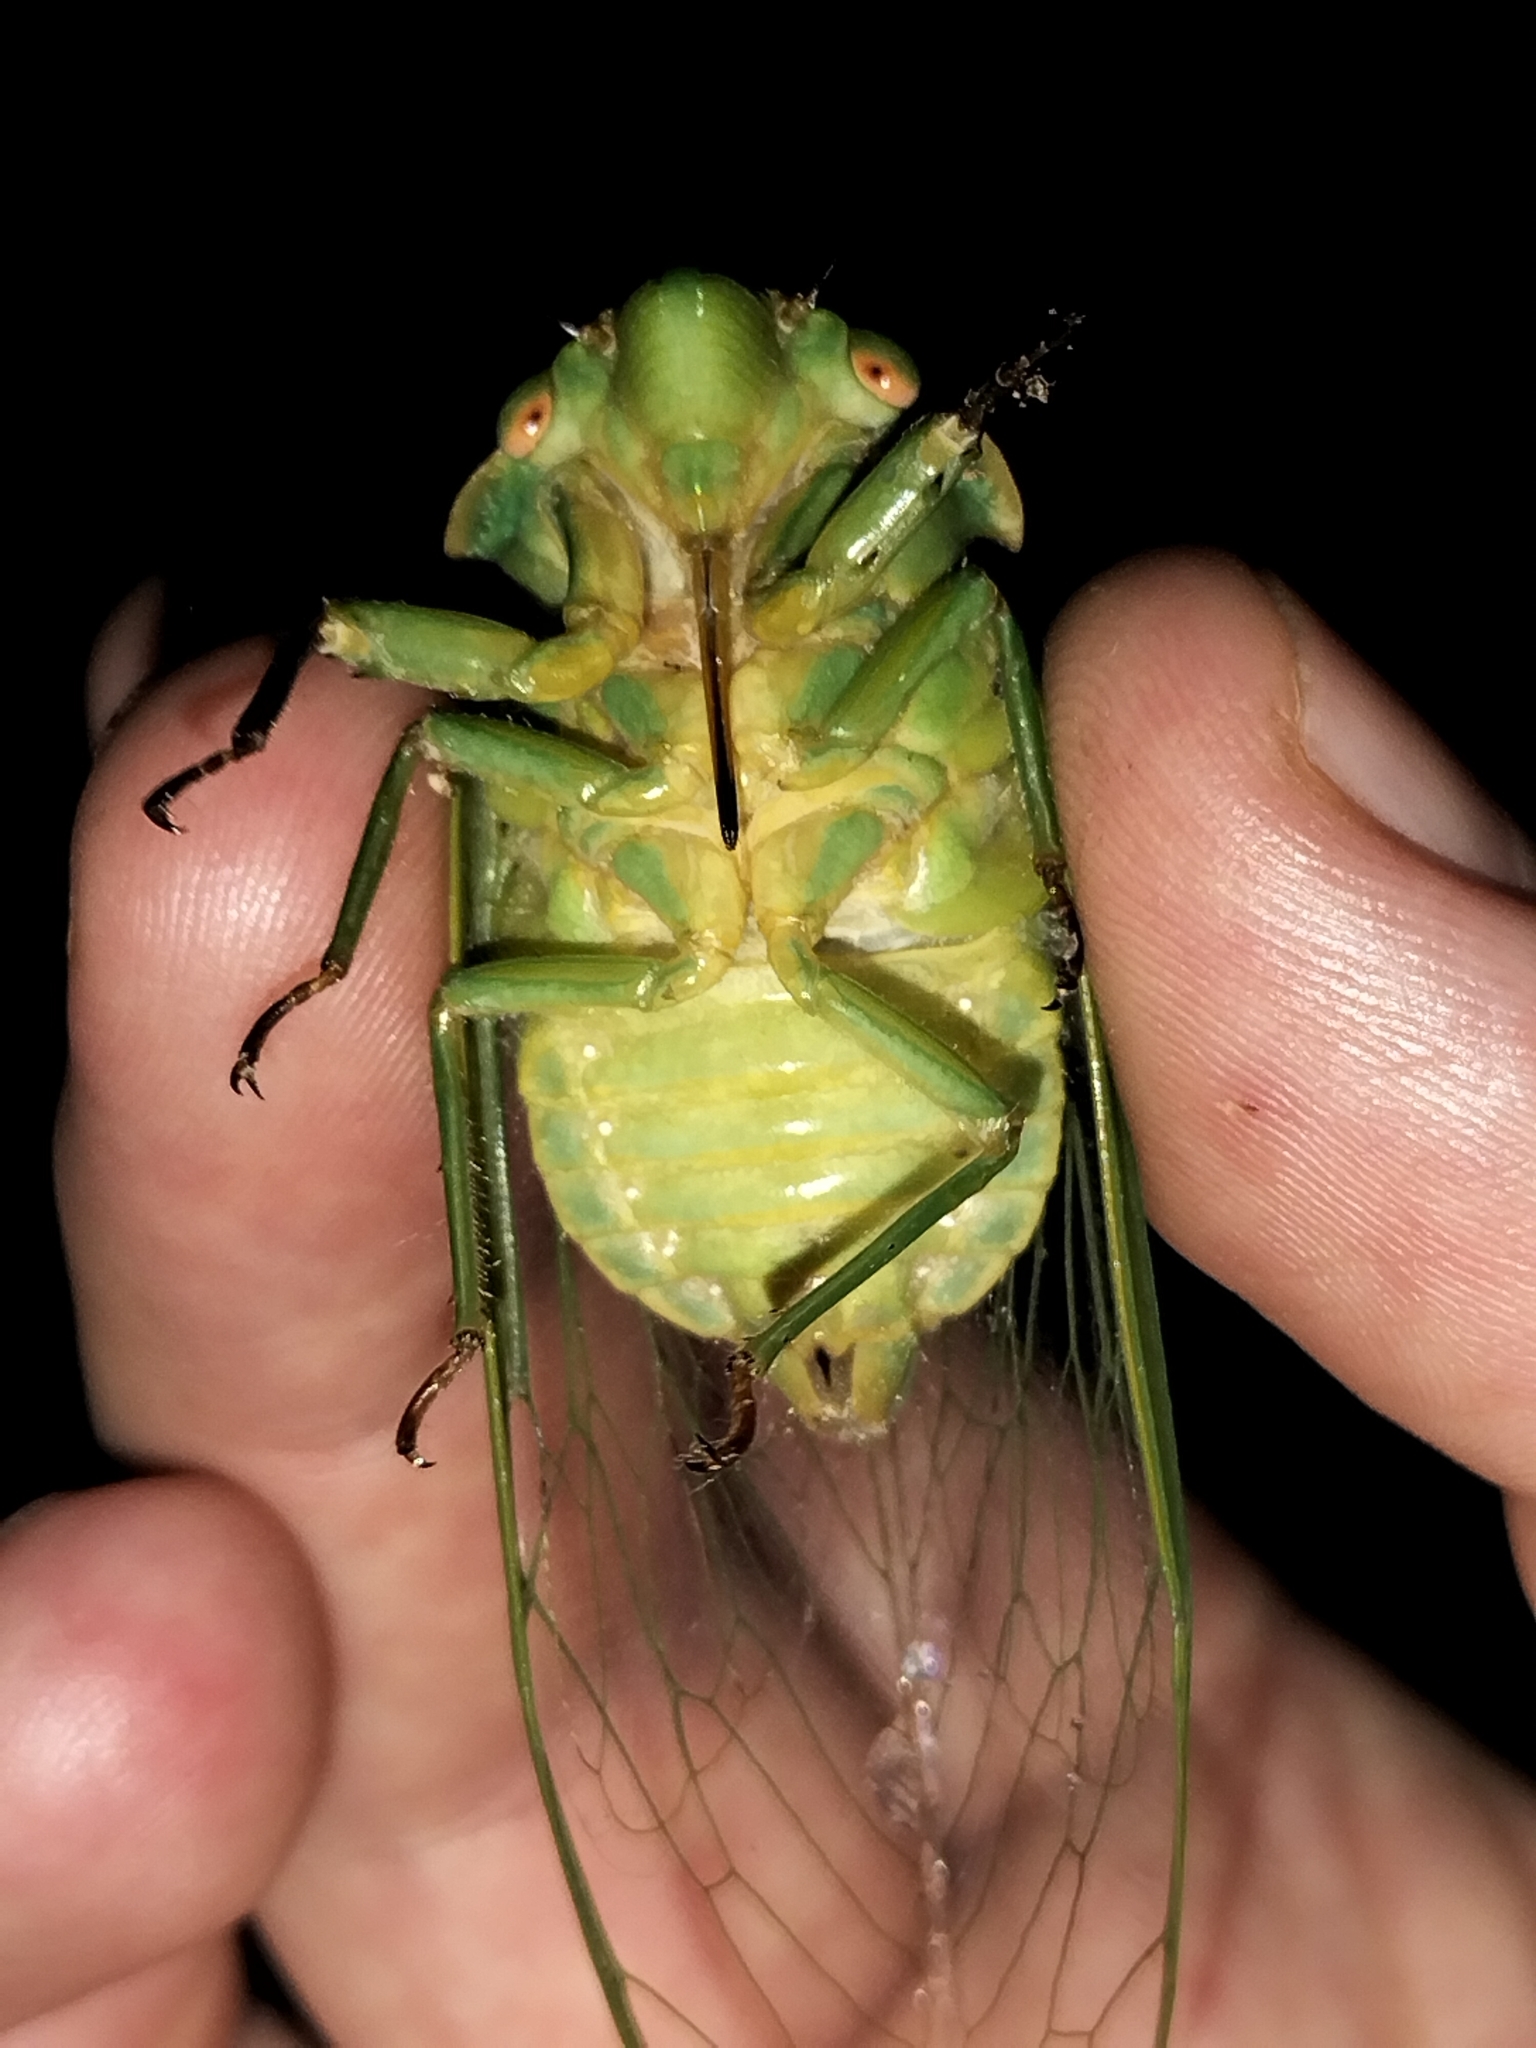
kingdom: Animalia
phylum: Arthropoda
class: Insecta
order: Hemiptera
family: Cicadidae
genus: Cyclochila
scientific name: Cyclochila virens
